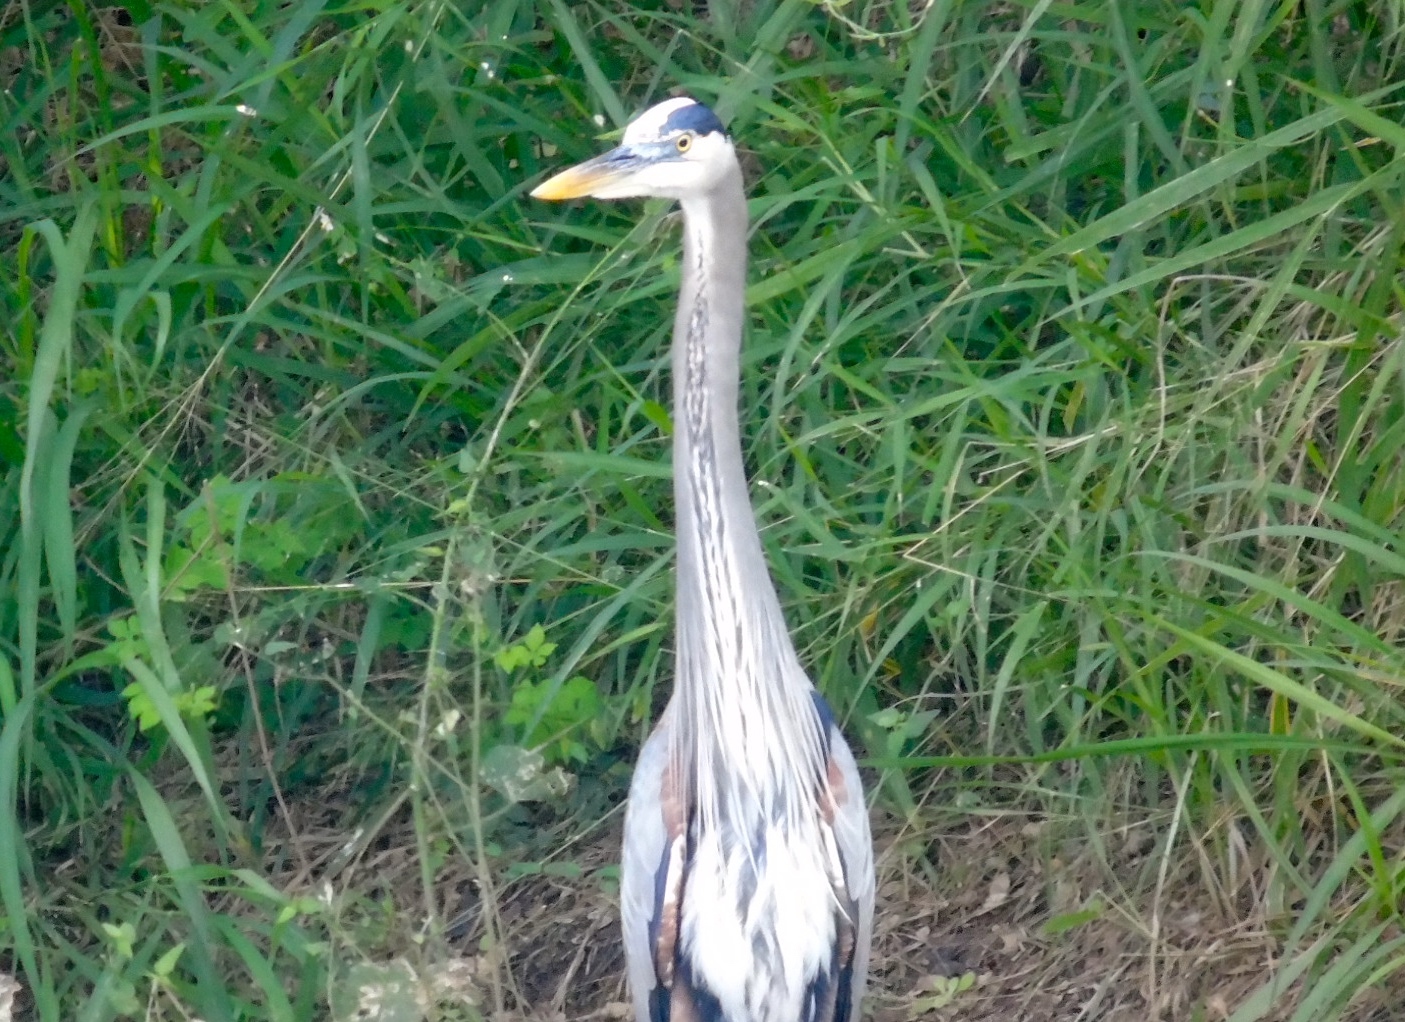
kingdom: Animalia
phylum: Chordata
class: Aves
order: Pelecaniformes
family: Ardeidae
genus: Ardea
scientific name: Ardea herodias
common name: Great blue heron
